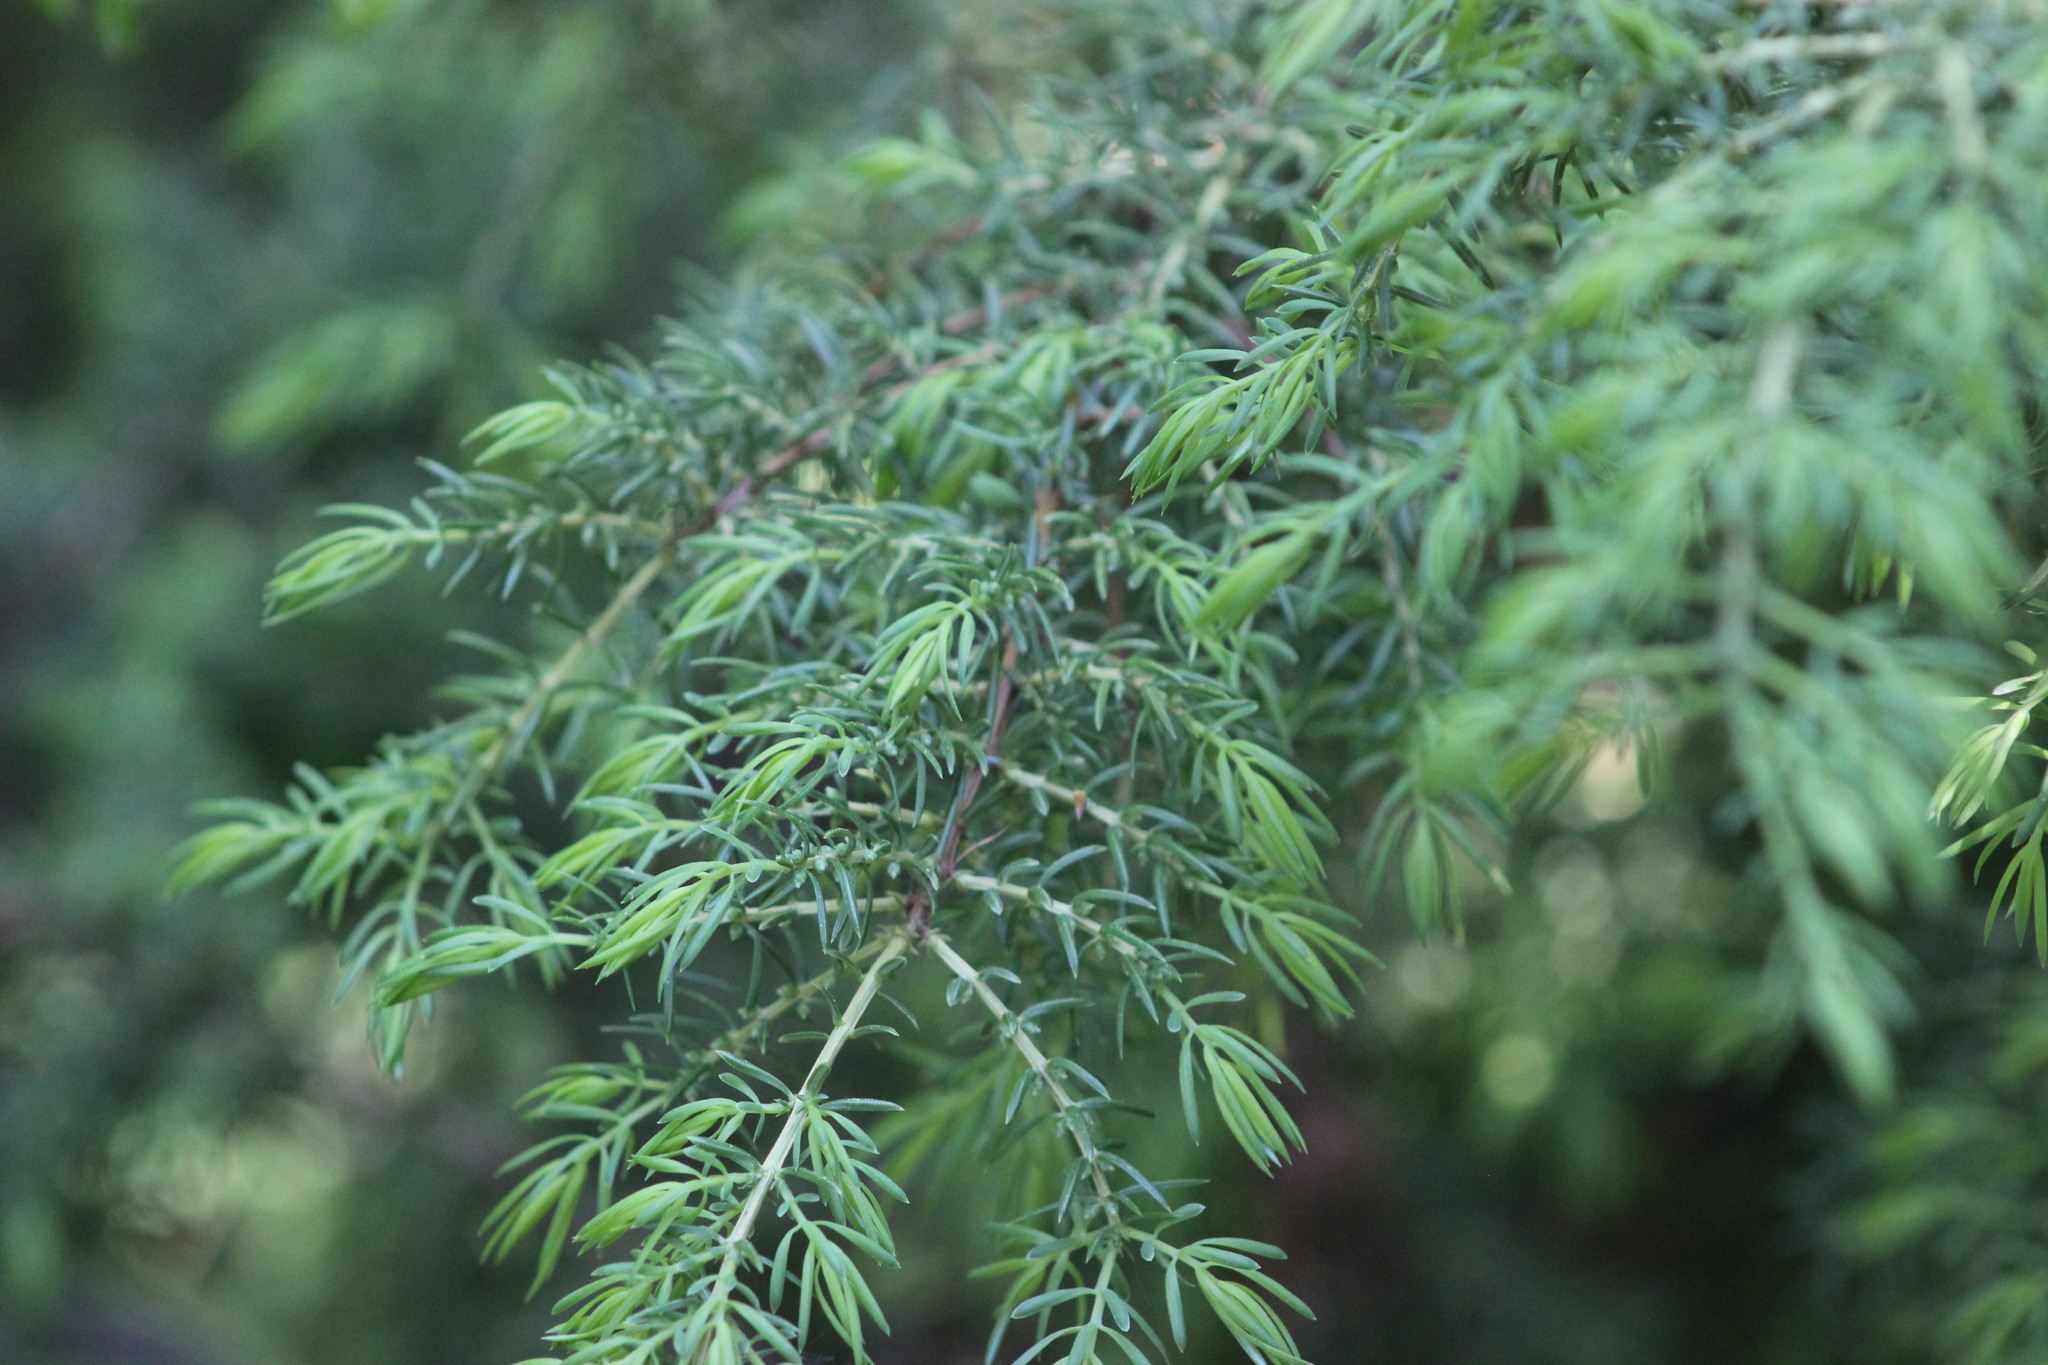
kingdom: Plantae
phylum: Tracheophyta
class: Pinopsida
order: Pinales
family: Cupressaceae
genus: Juniperus
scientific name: Juniperus communis
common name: Common juniper
